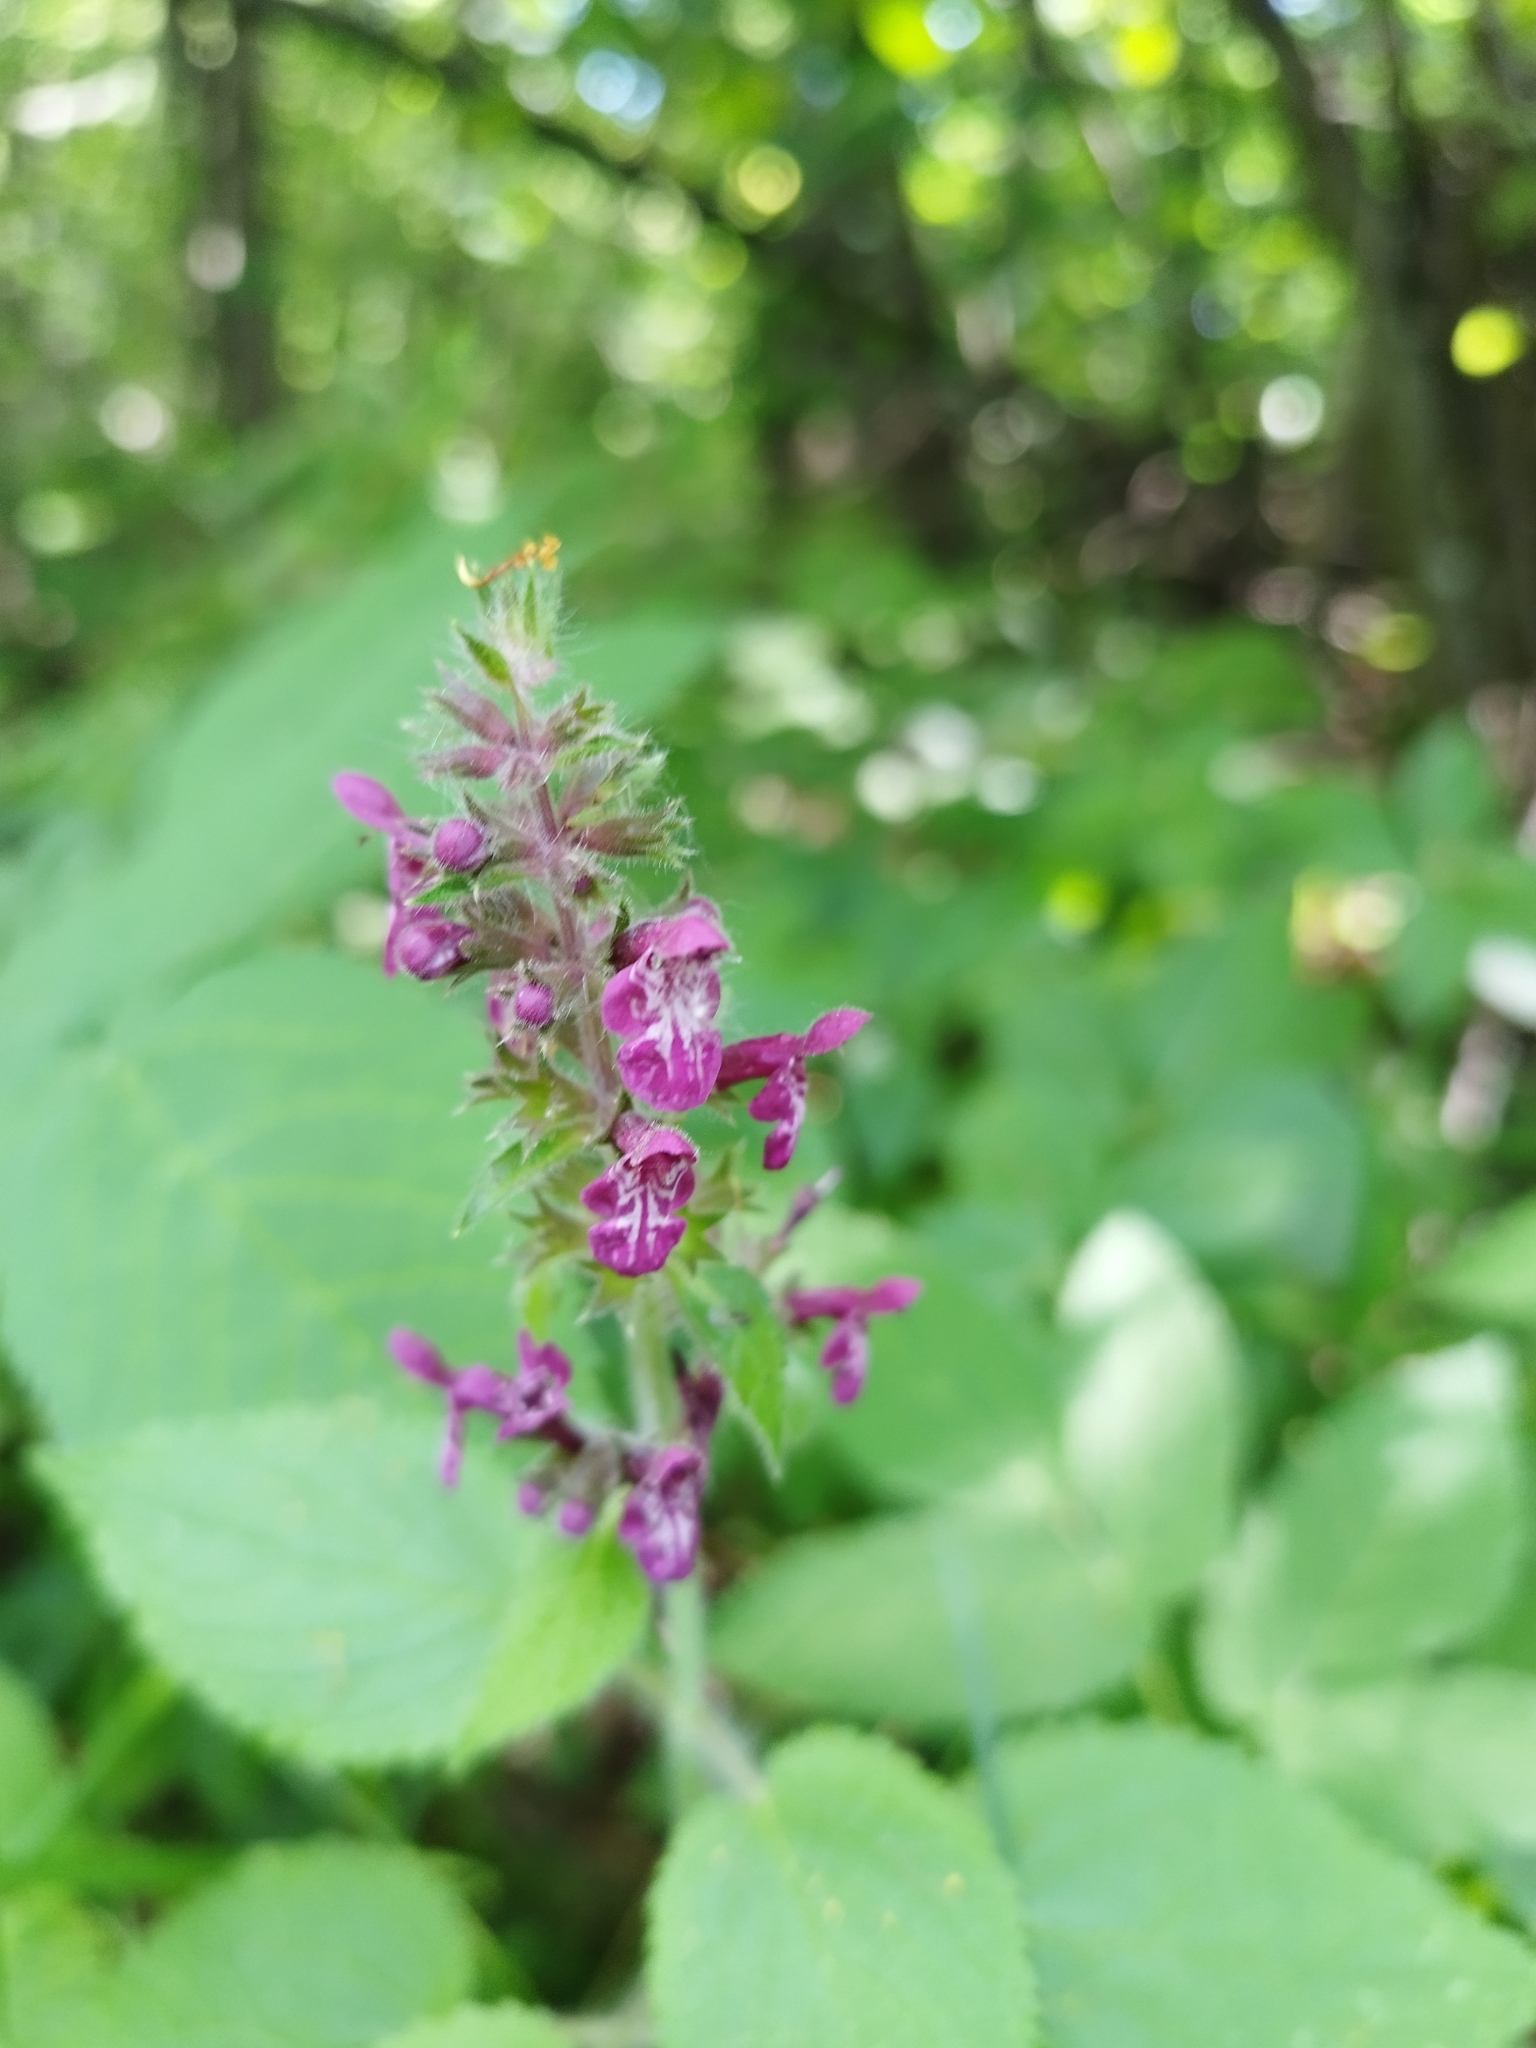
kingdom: Plantae
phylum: Tracheophyta
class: Magnoliopsida
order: Lamiales
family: Lamiaceae
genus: Stachys
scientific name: Stachys sylvatica
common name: Hedge woundwort
